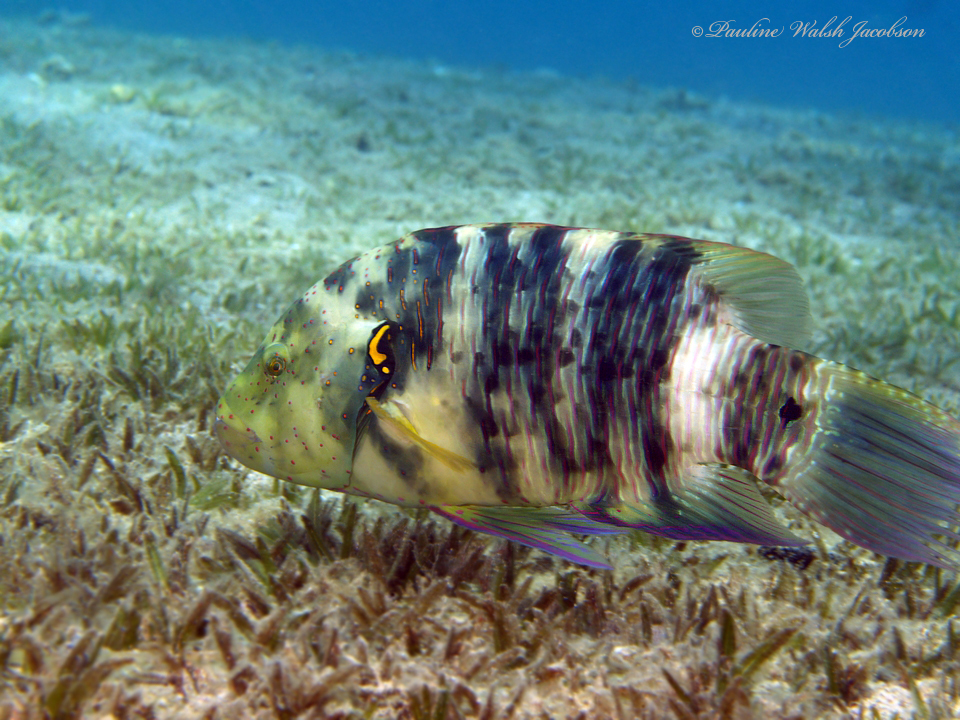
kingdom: Animalia
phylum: Chordata
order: Perciformes
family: Labridae
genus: Cheilinus
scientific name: Cheilinus lunulatus
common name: Broomtail wrasse
